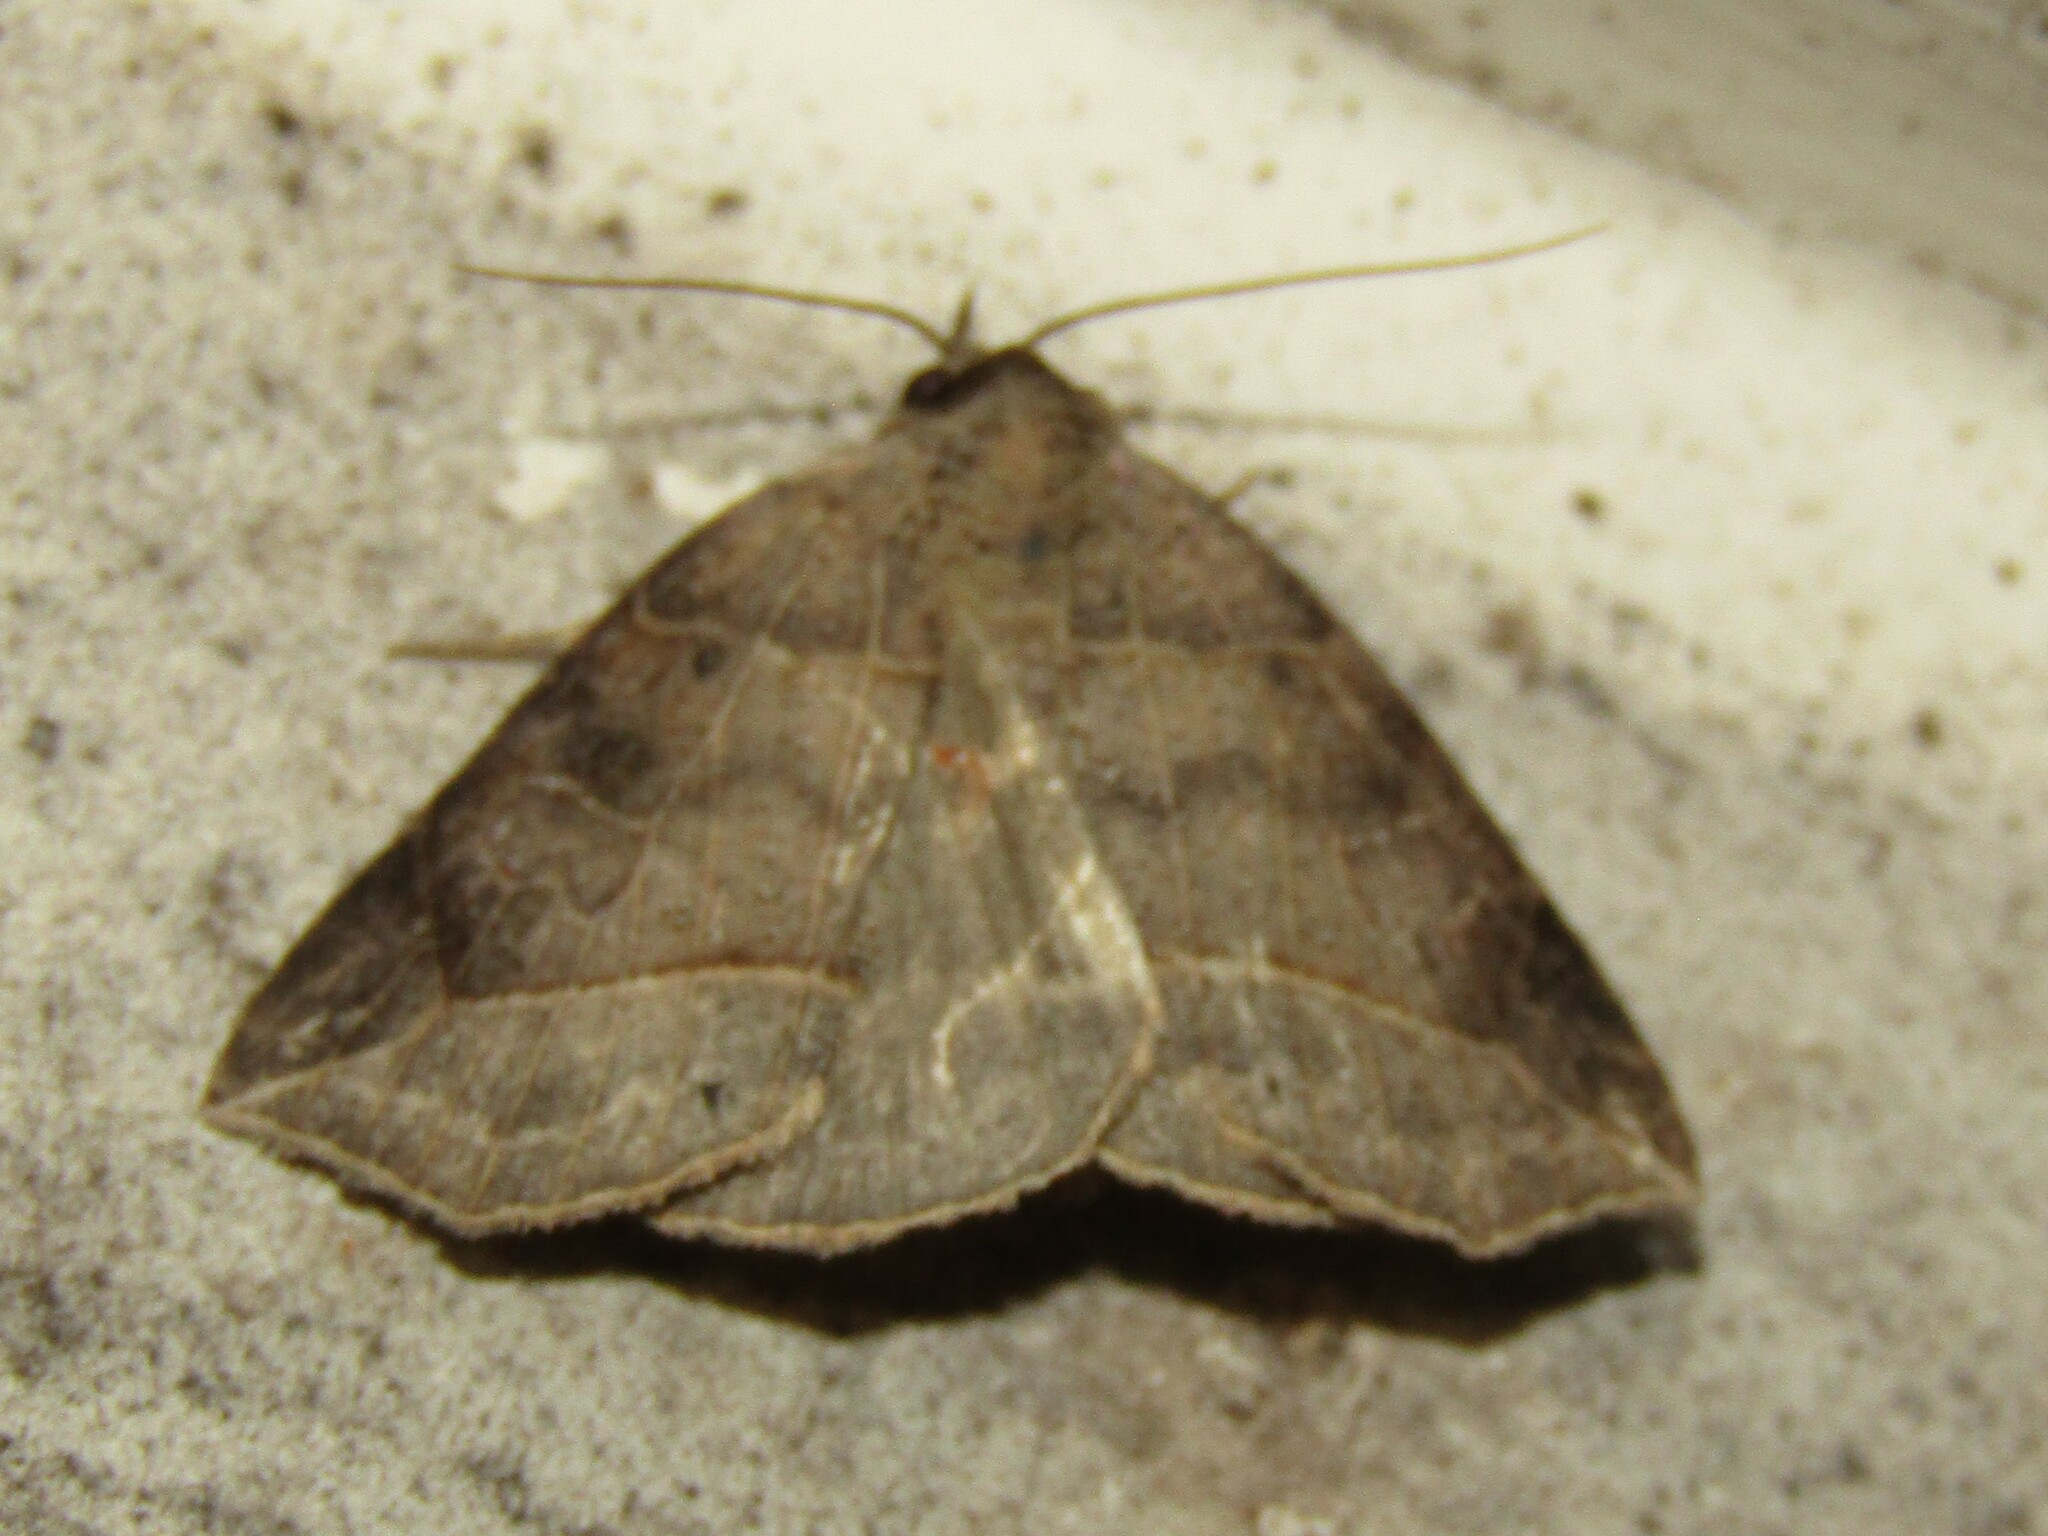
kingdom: Animalia
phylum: Arthropoda
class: Insecta
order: Lepidoptera
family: Erebidae
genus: Isogona
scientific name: Isogona tenuis
